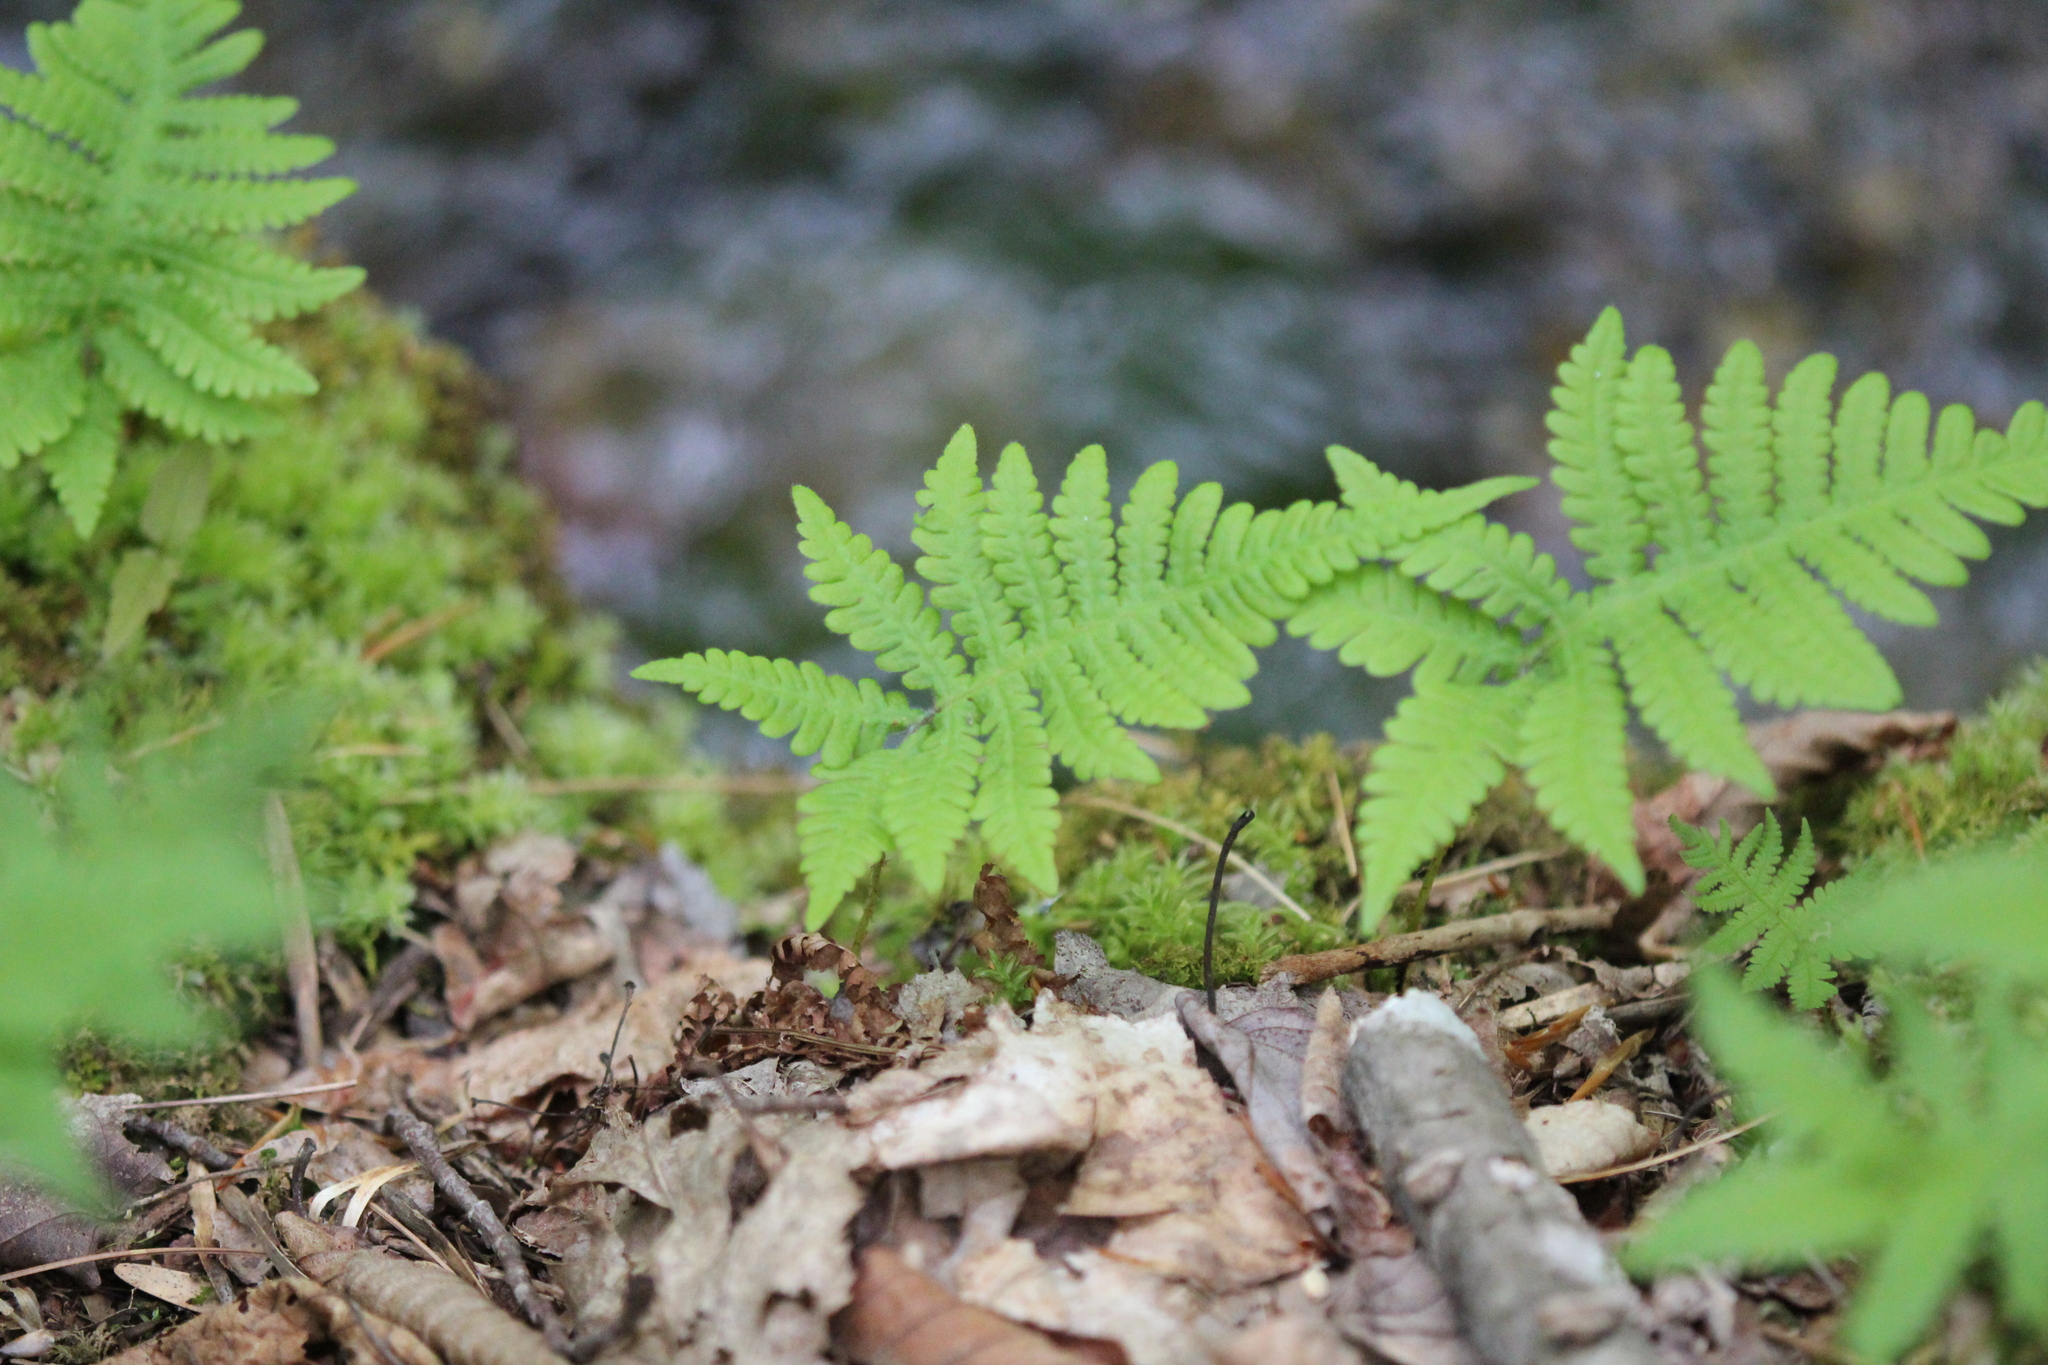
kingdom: Plantae
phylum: Tracheophyta
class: Polypodiopsida
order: Polypodiales
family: Thelypteridaceae
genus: Phegopteris
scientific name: Phegopteris connectilis
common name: Beech fern
